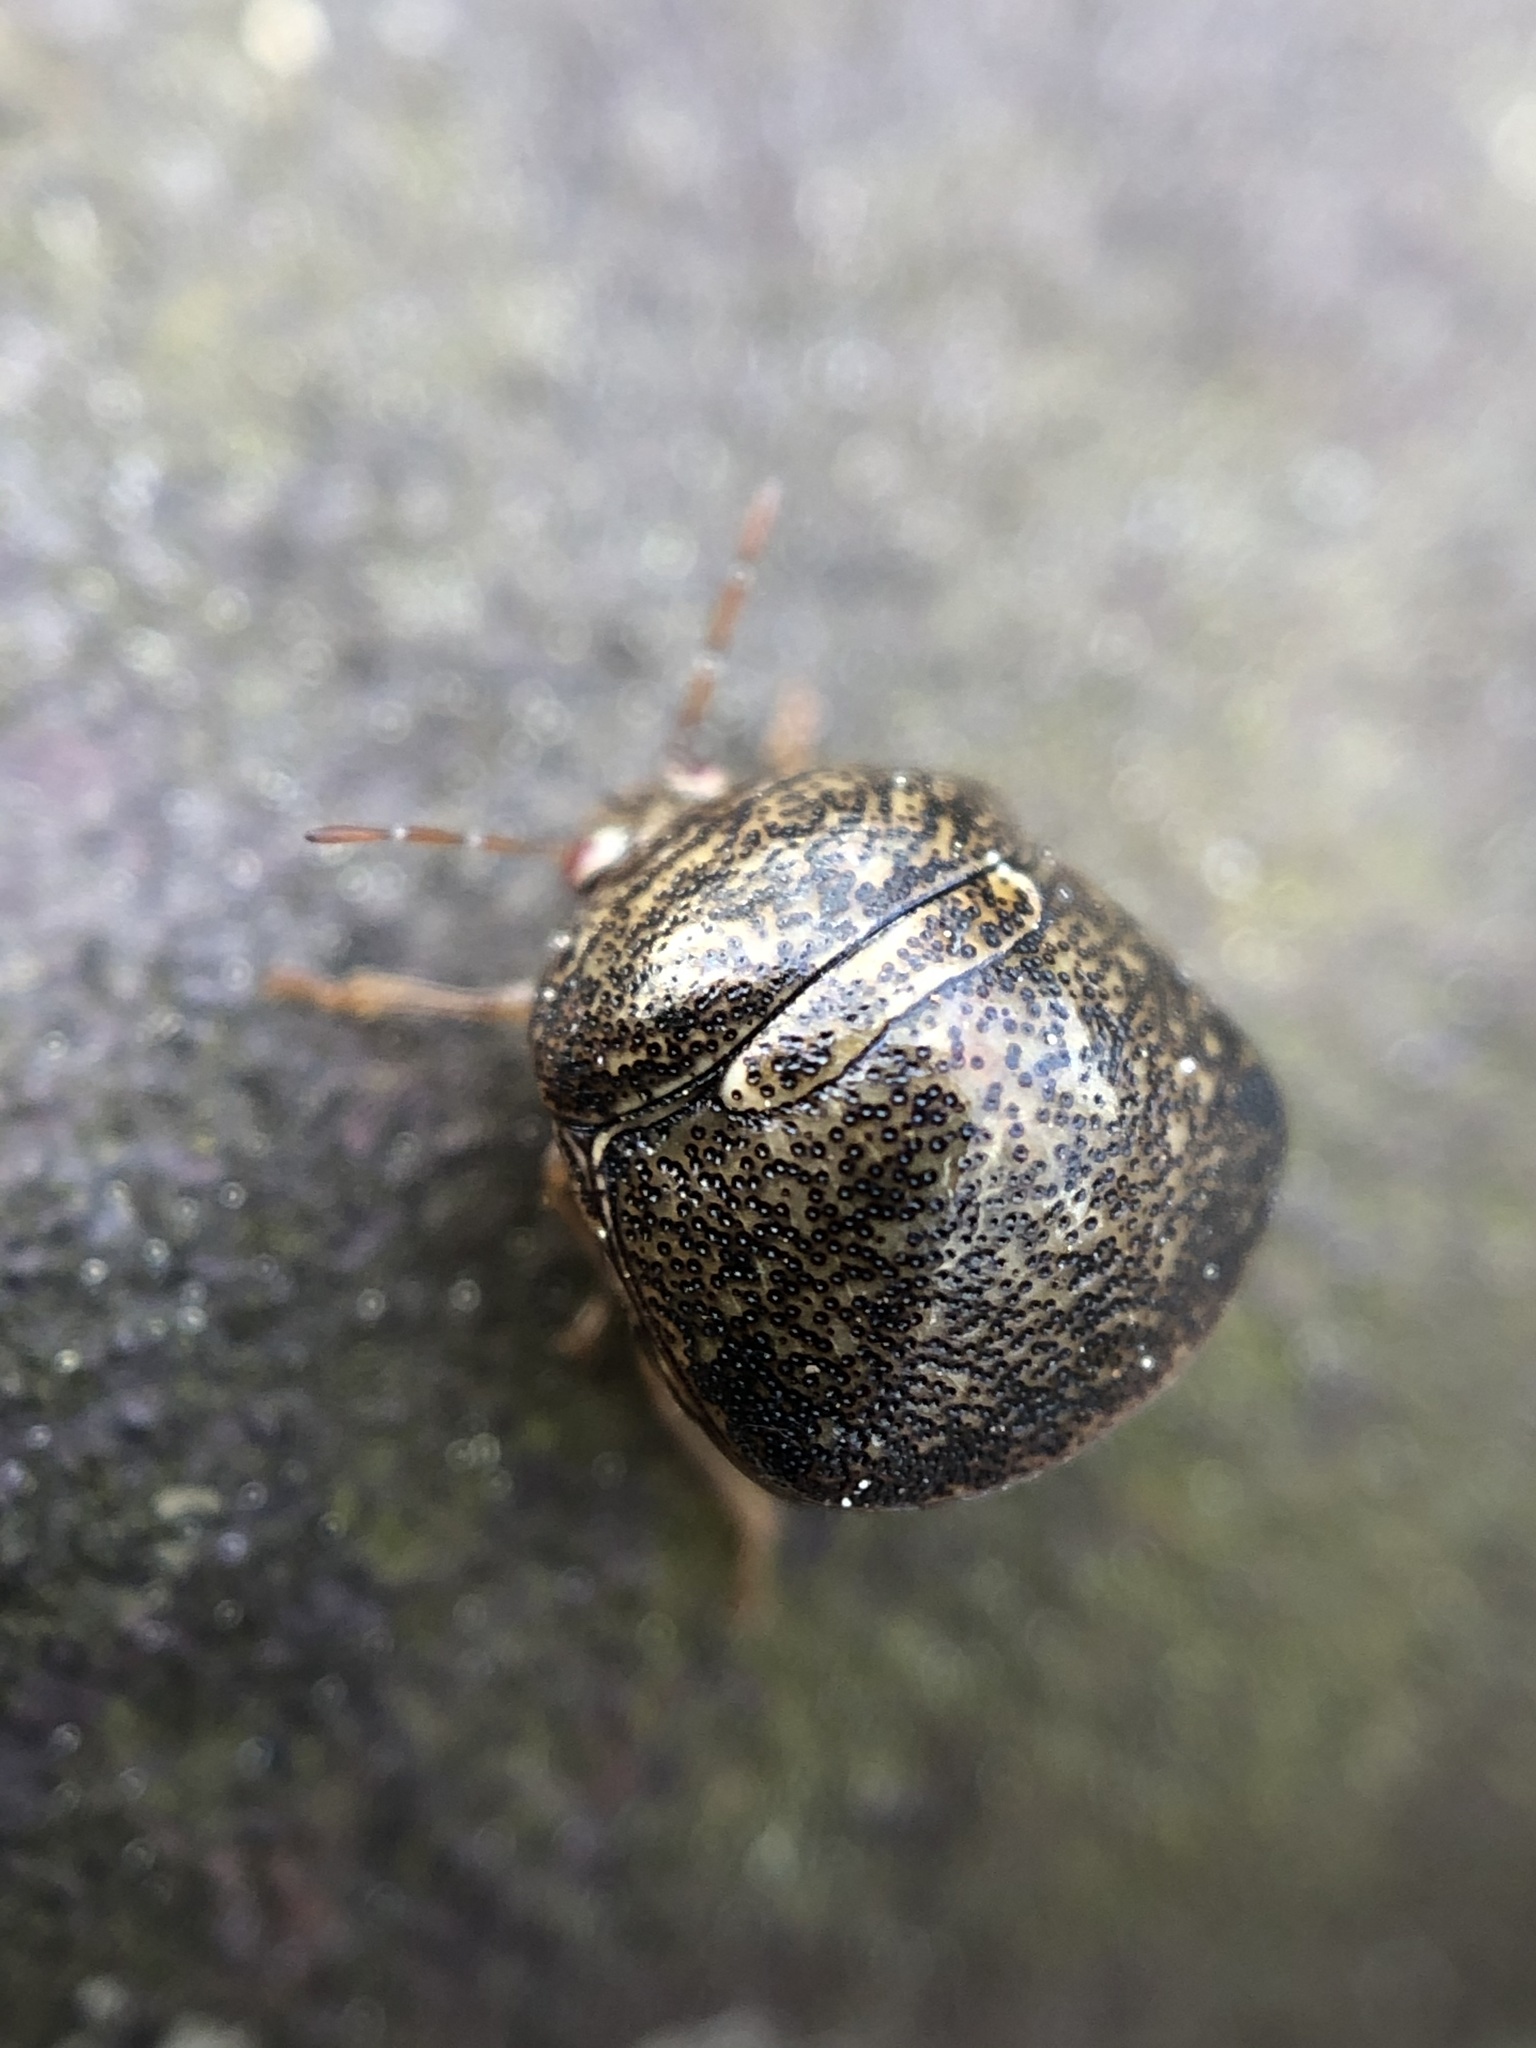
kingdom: Animalia
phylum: Arthropoda
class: Insecta
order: Hemiptera
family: Plataspidae
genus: Megacopta
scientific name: Megacopta cribraria
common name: Bean plataspid
